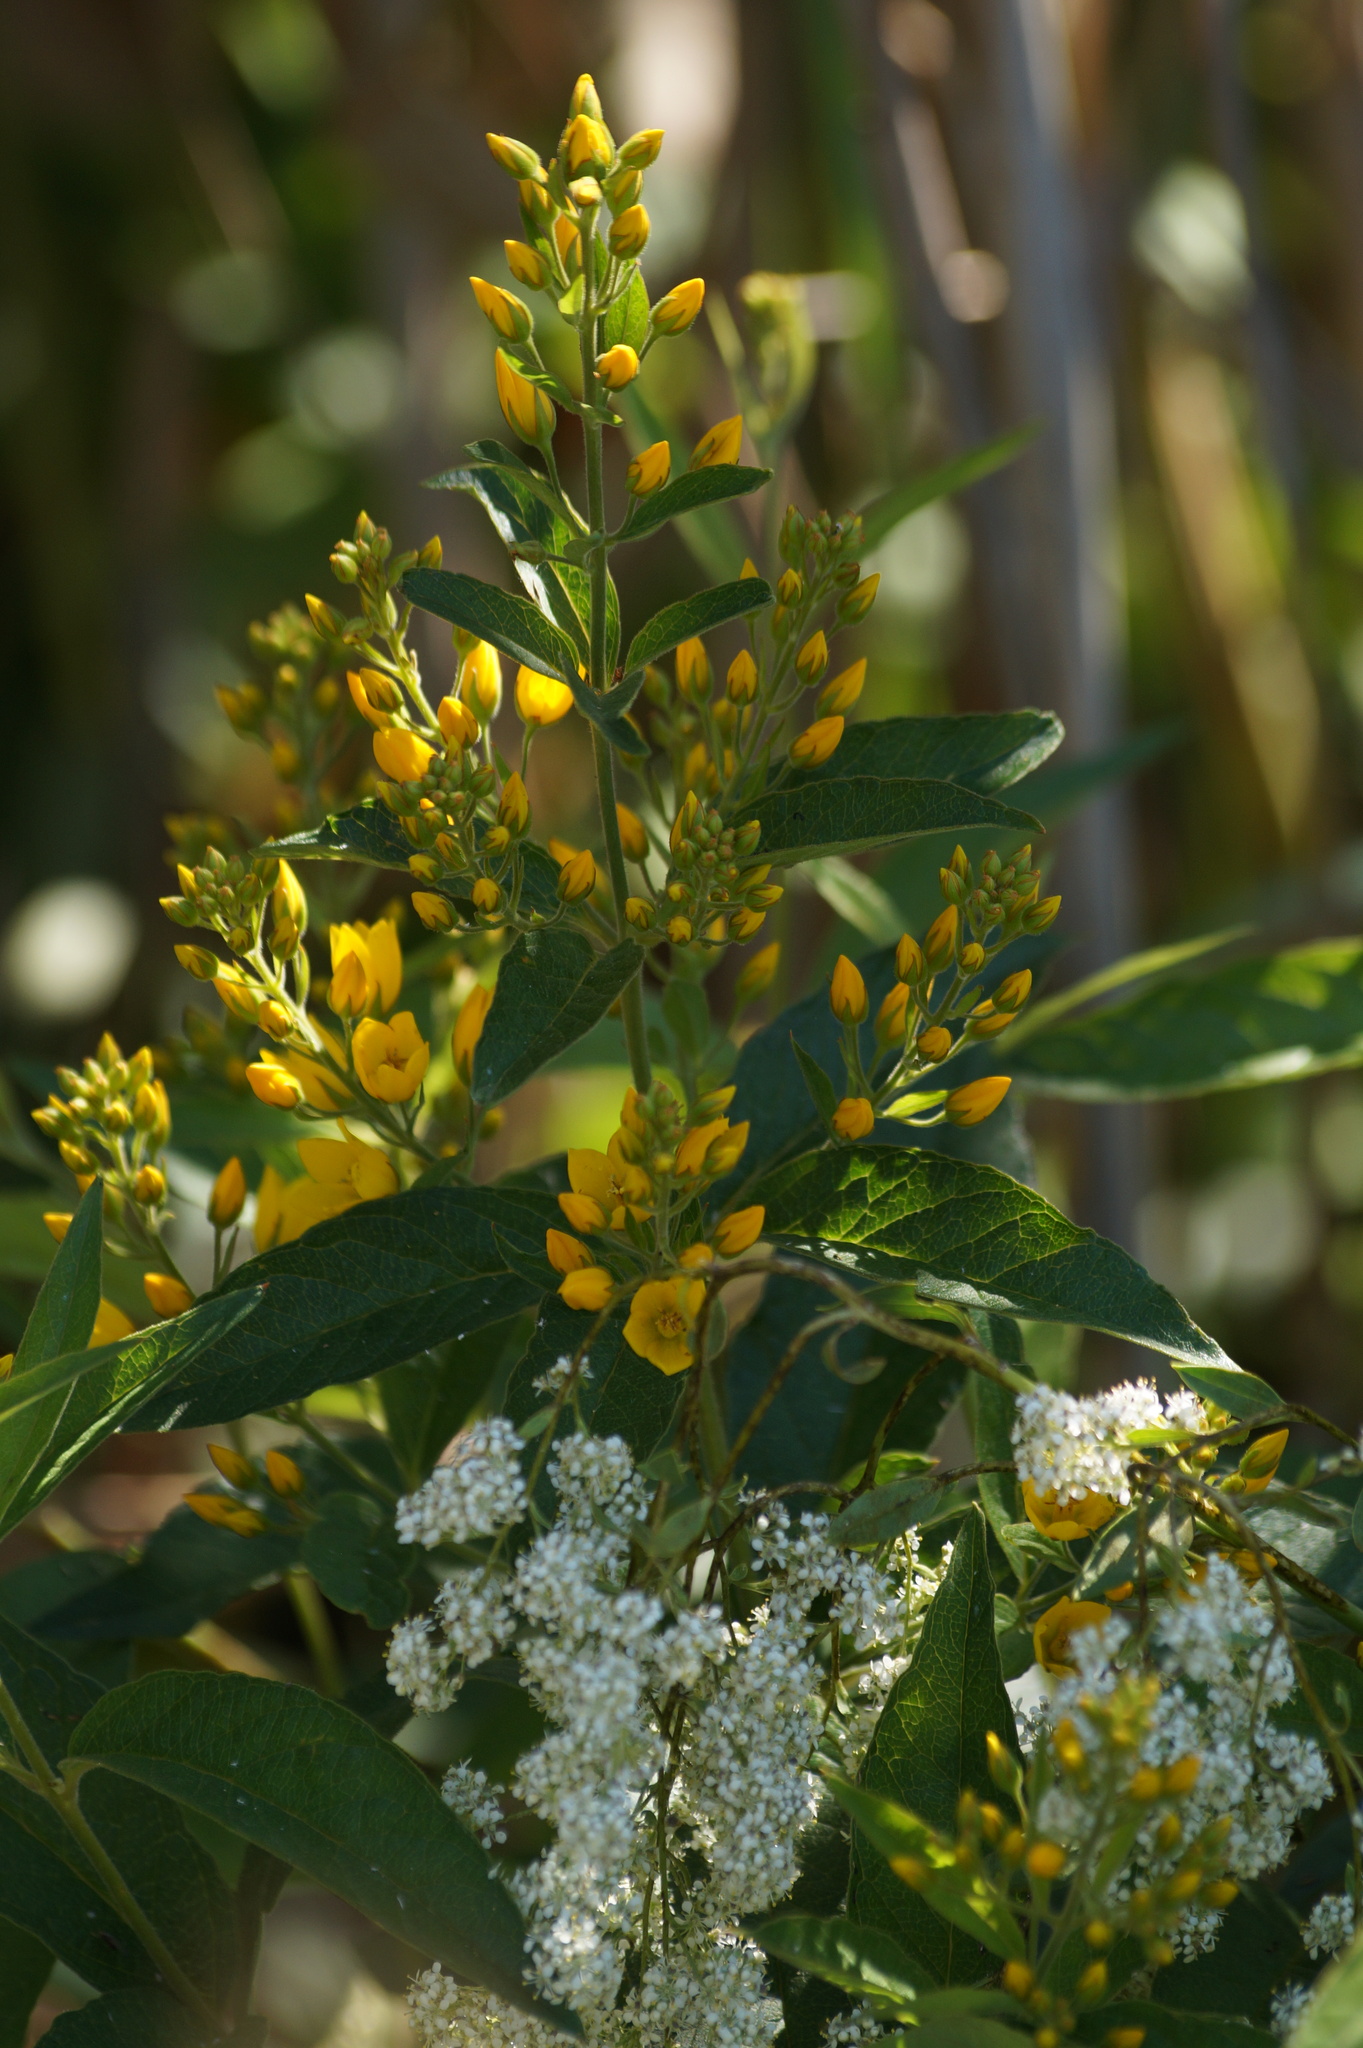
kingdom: Plantae
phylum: Tracheophyta
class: Magnoliopsida
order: Ericales
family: Primulaceae
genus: Lysimachia
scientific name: Lysimachia vulgaris
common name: Yellow loosestrife
